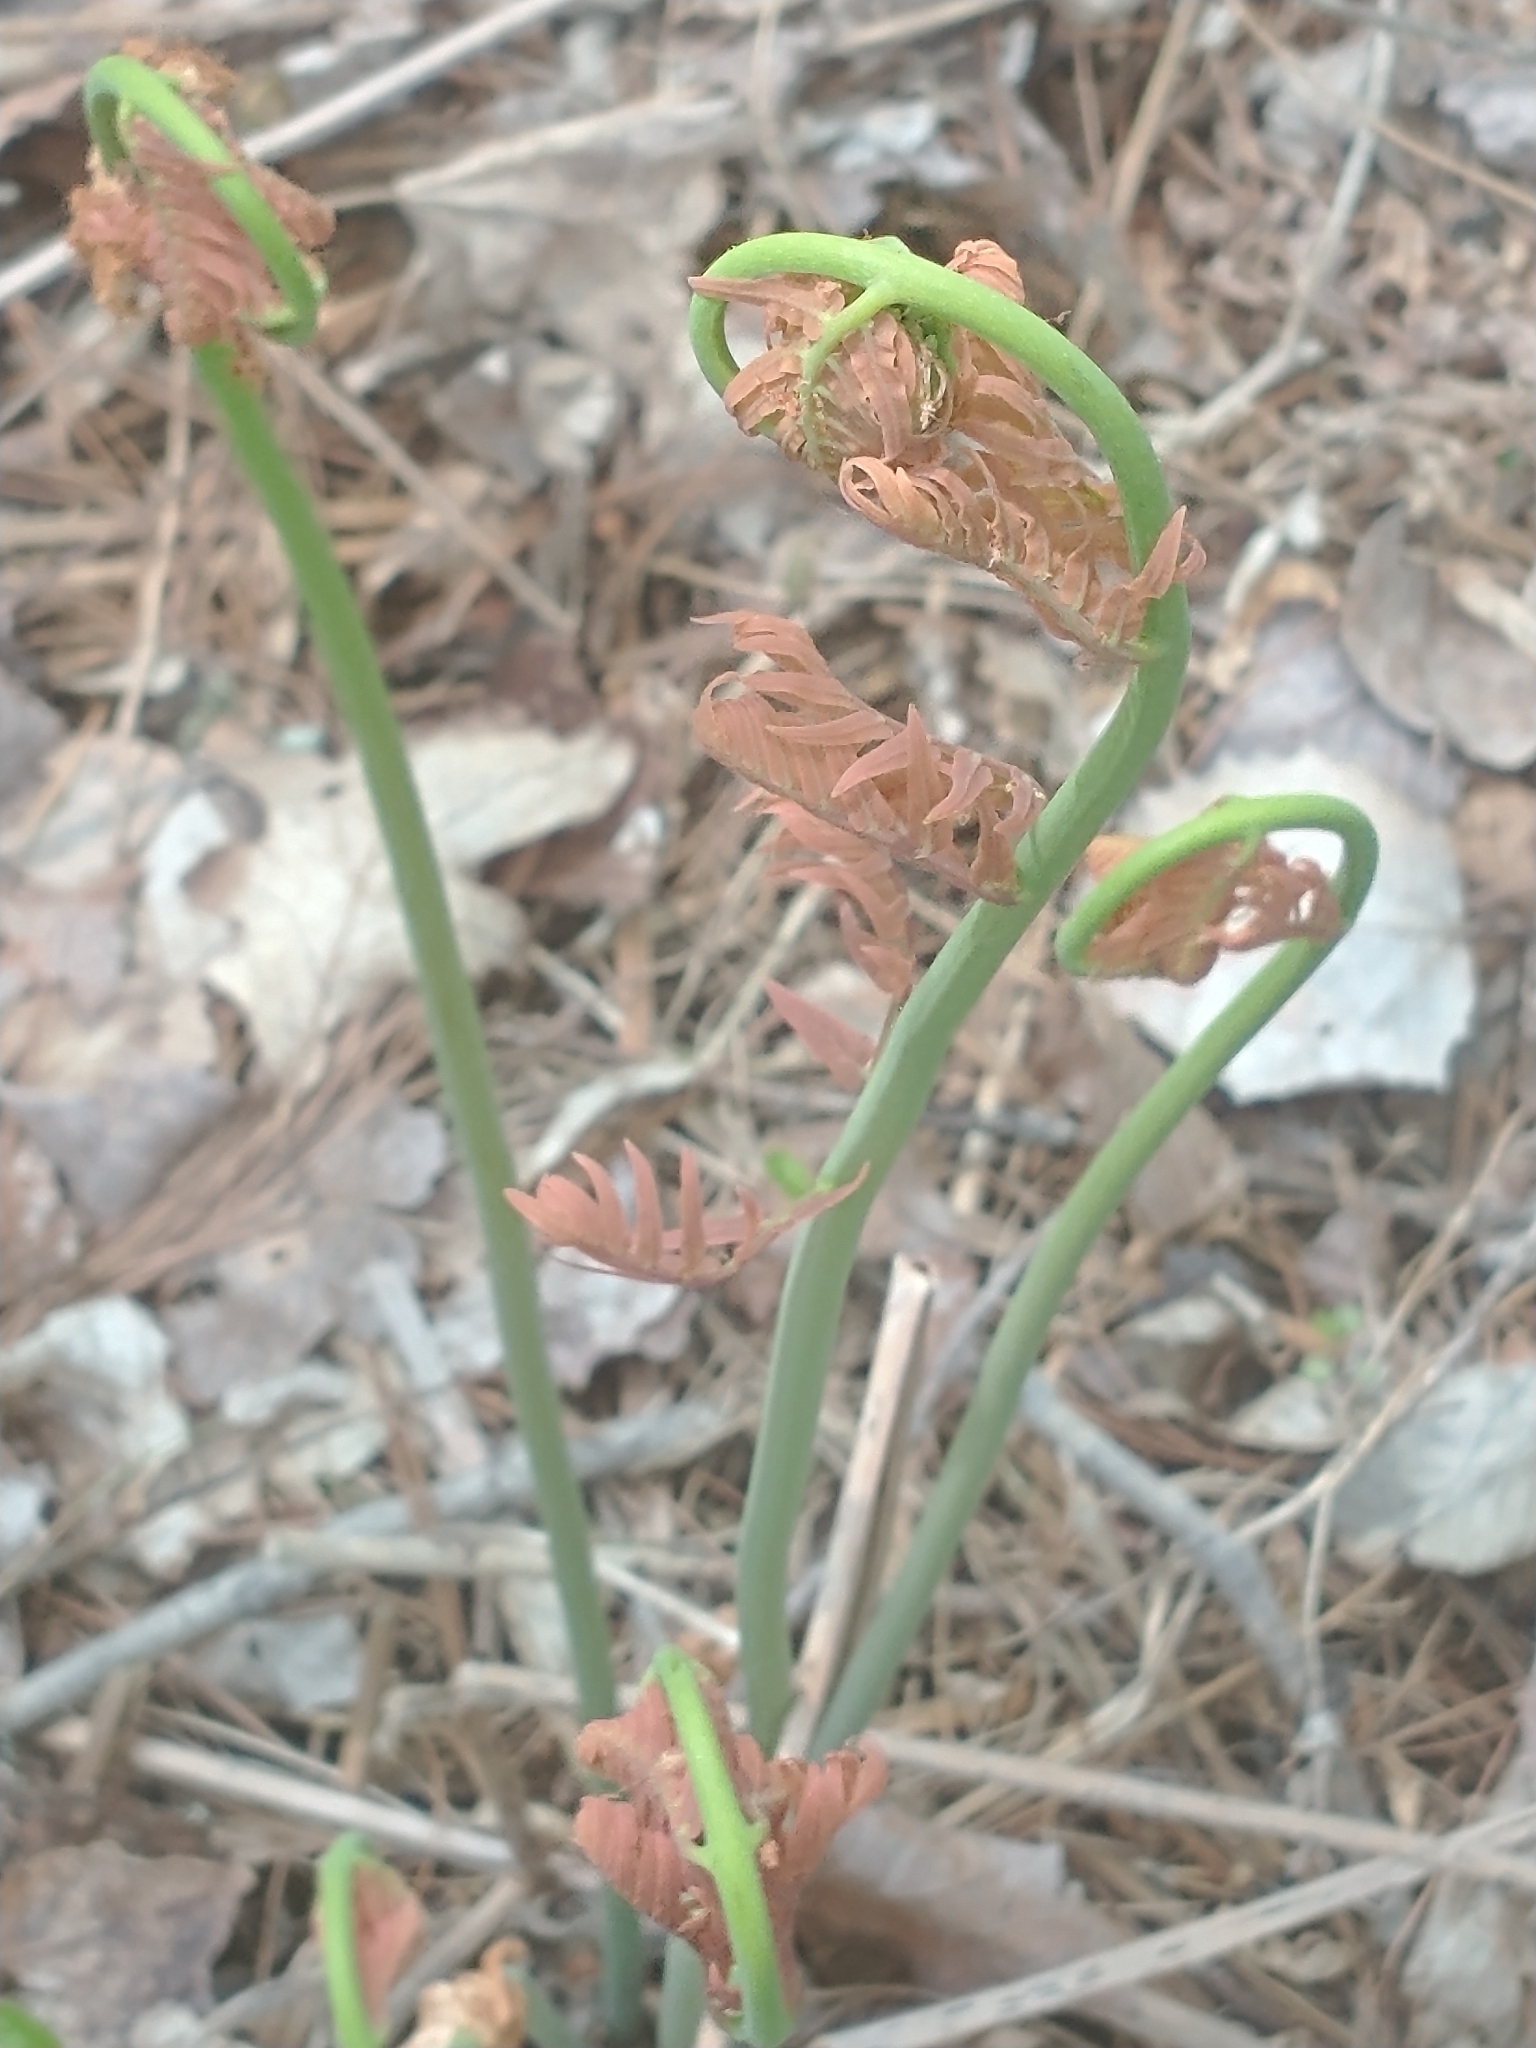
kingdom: Plantae
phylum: Tracheophyta
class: Polypodiopsida
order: Osmundales
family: Osmundaceae
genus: Osmunda
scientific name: Osmunda spectabilis
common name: American royal fern
